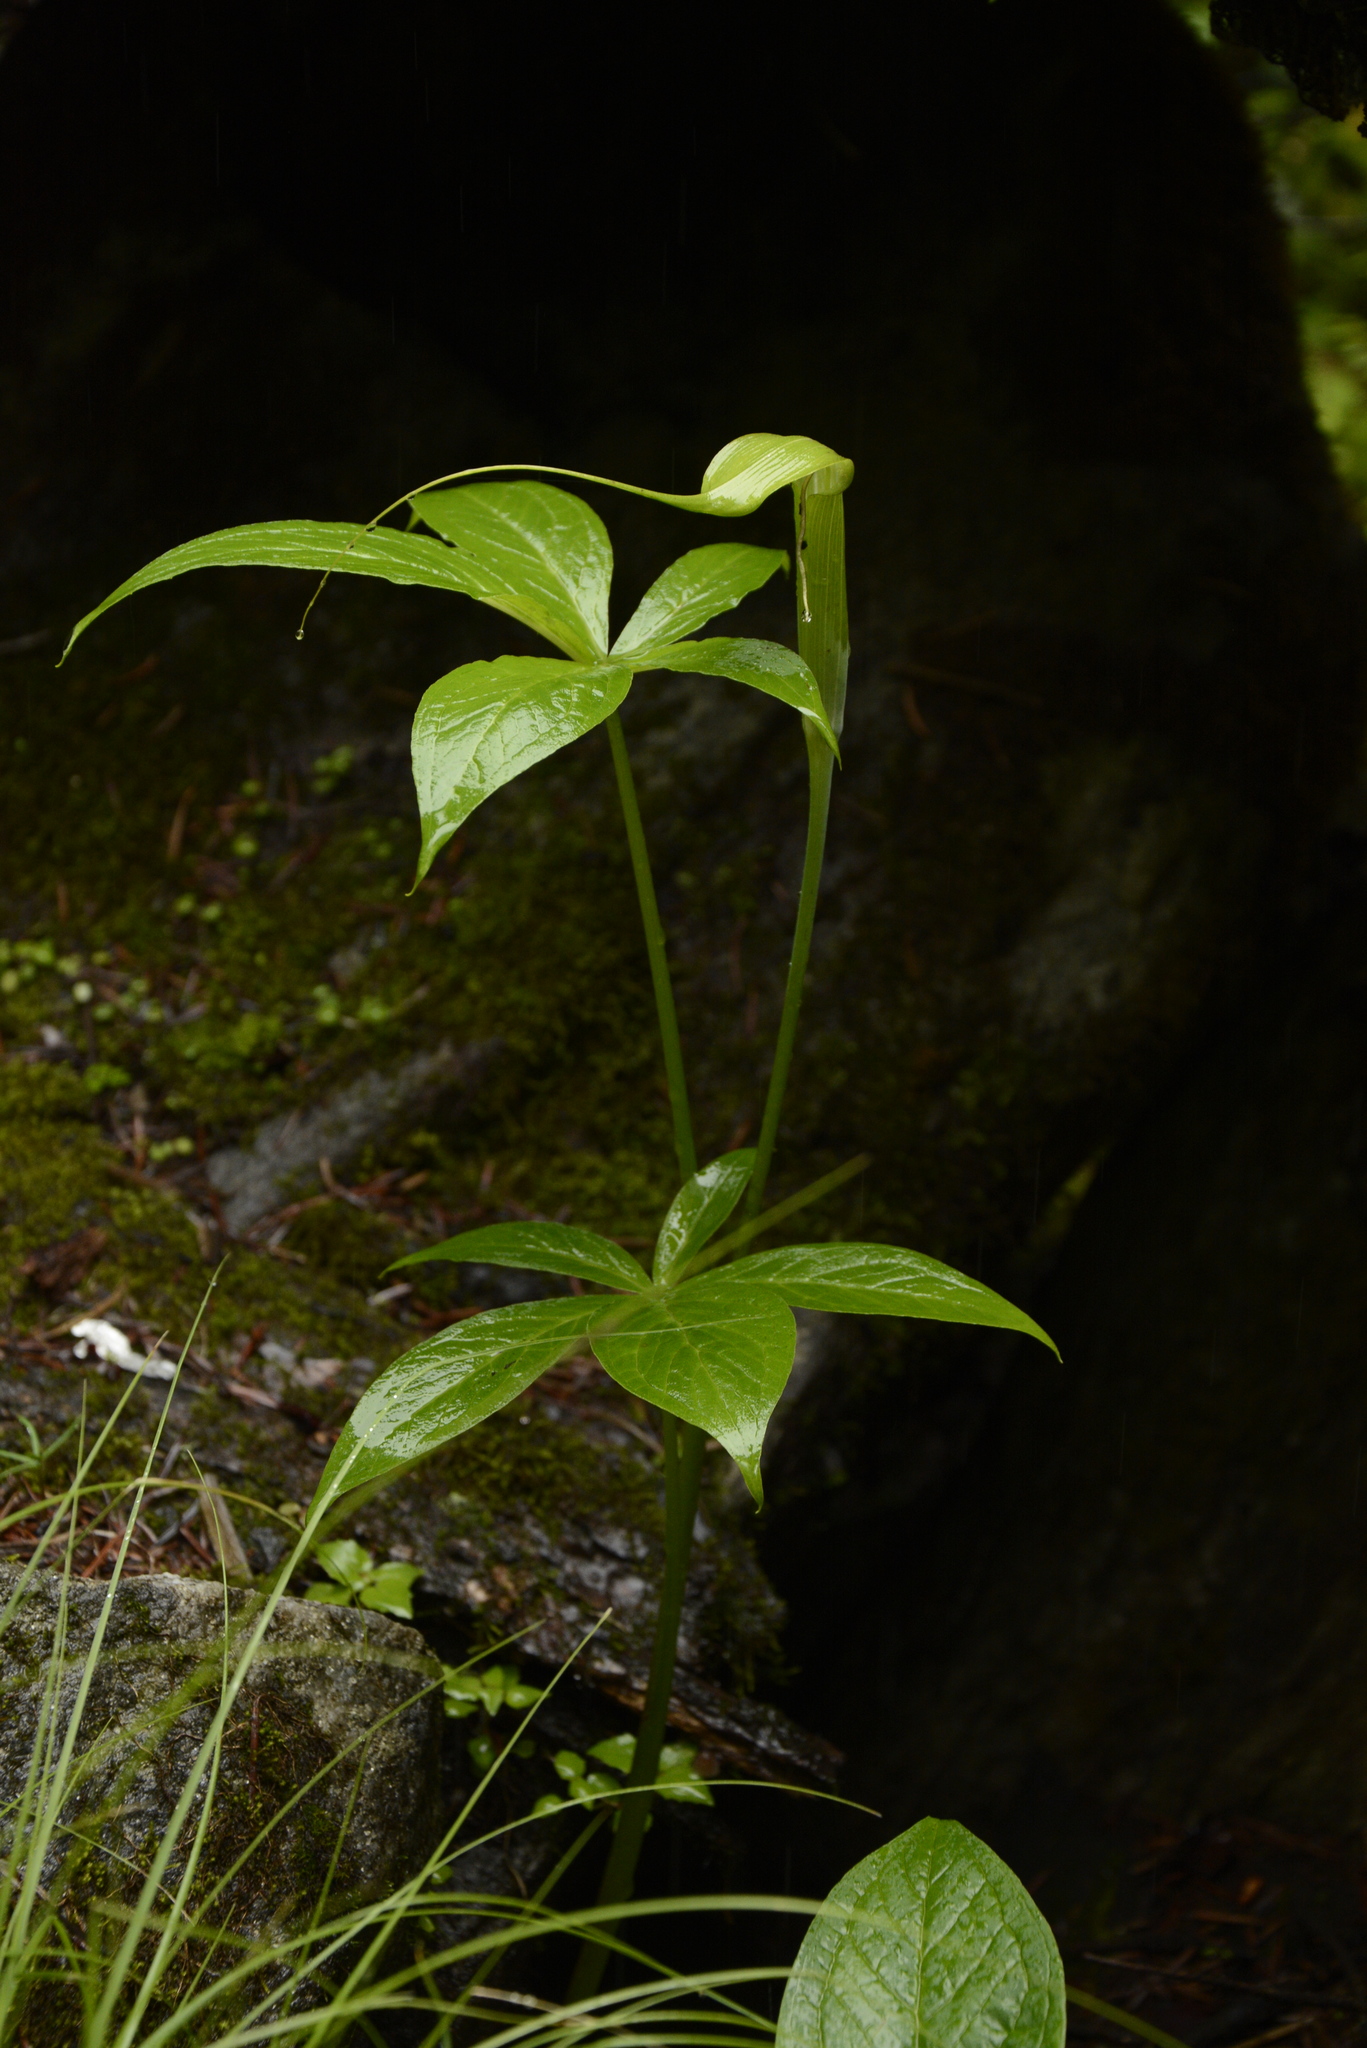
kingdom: Plantae
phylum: Tracheophyta
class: Liliopsida
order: Alismatales
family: Araceae
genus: Arisaema
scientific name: Arisaema jacquemontii
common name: Jacquemont's cobra-lily
